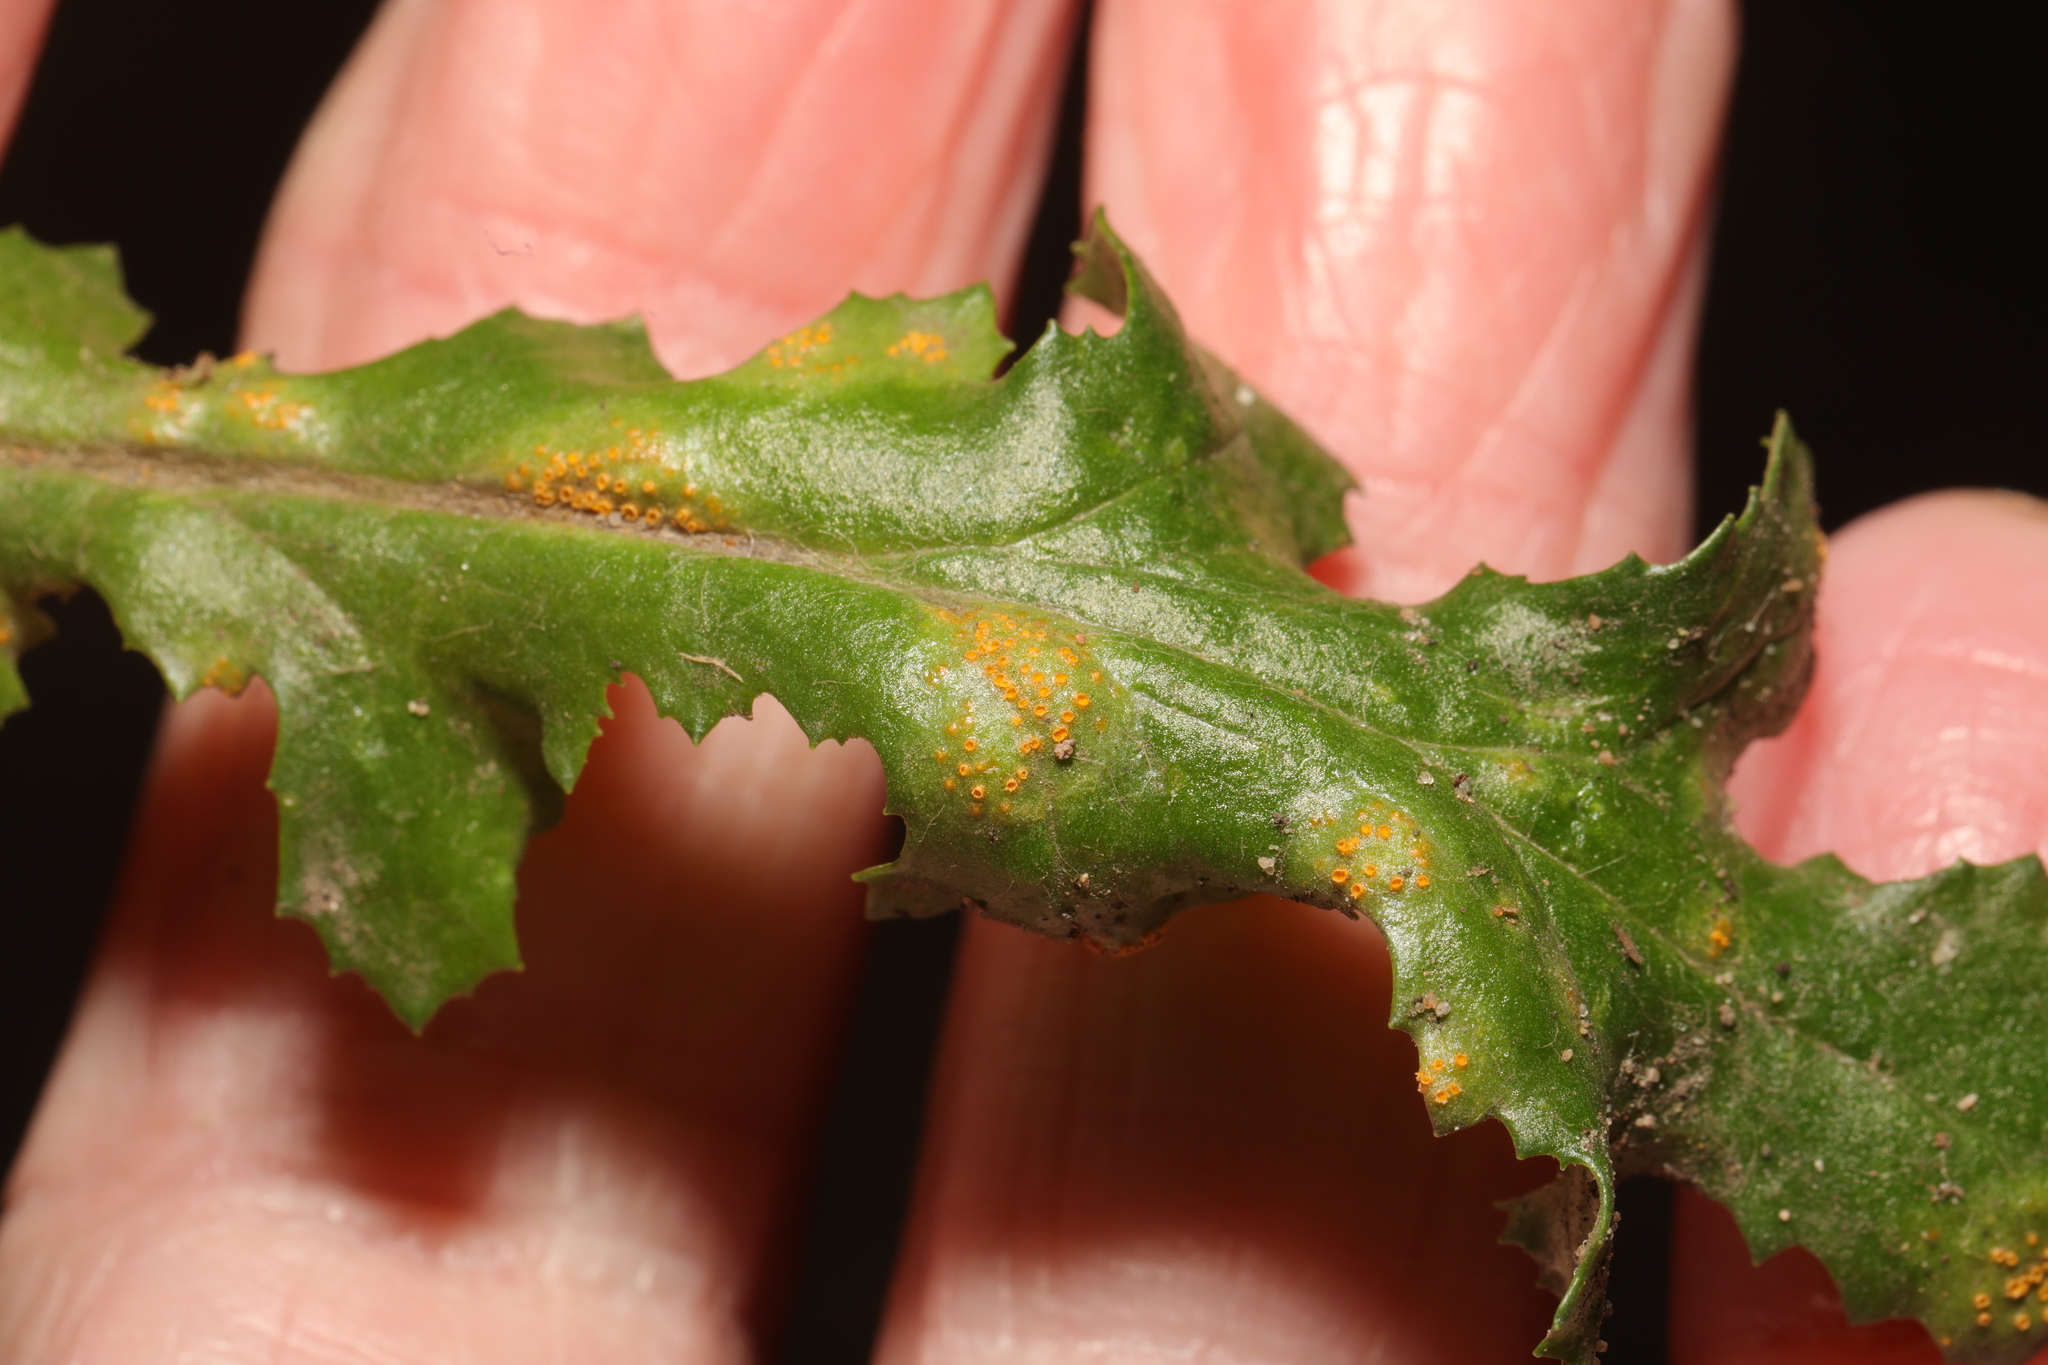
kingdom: Fungi
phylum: Basidiomycota
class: Pucciniomycetes
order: Pucciniales
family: Pucciniaceae
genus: Puccinia
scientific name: Puccinia lagenophorae
